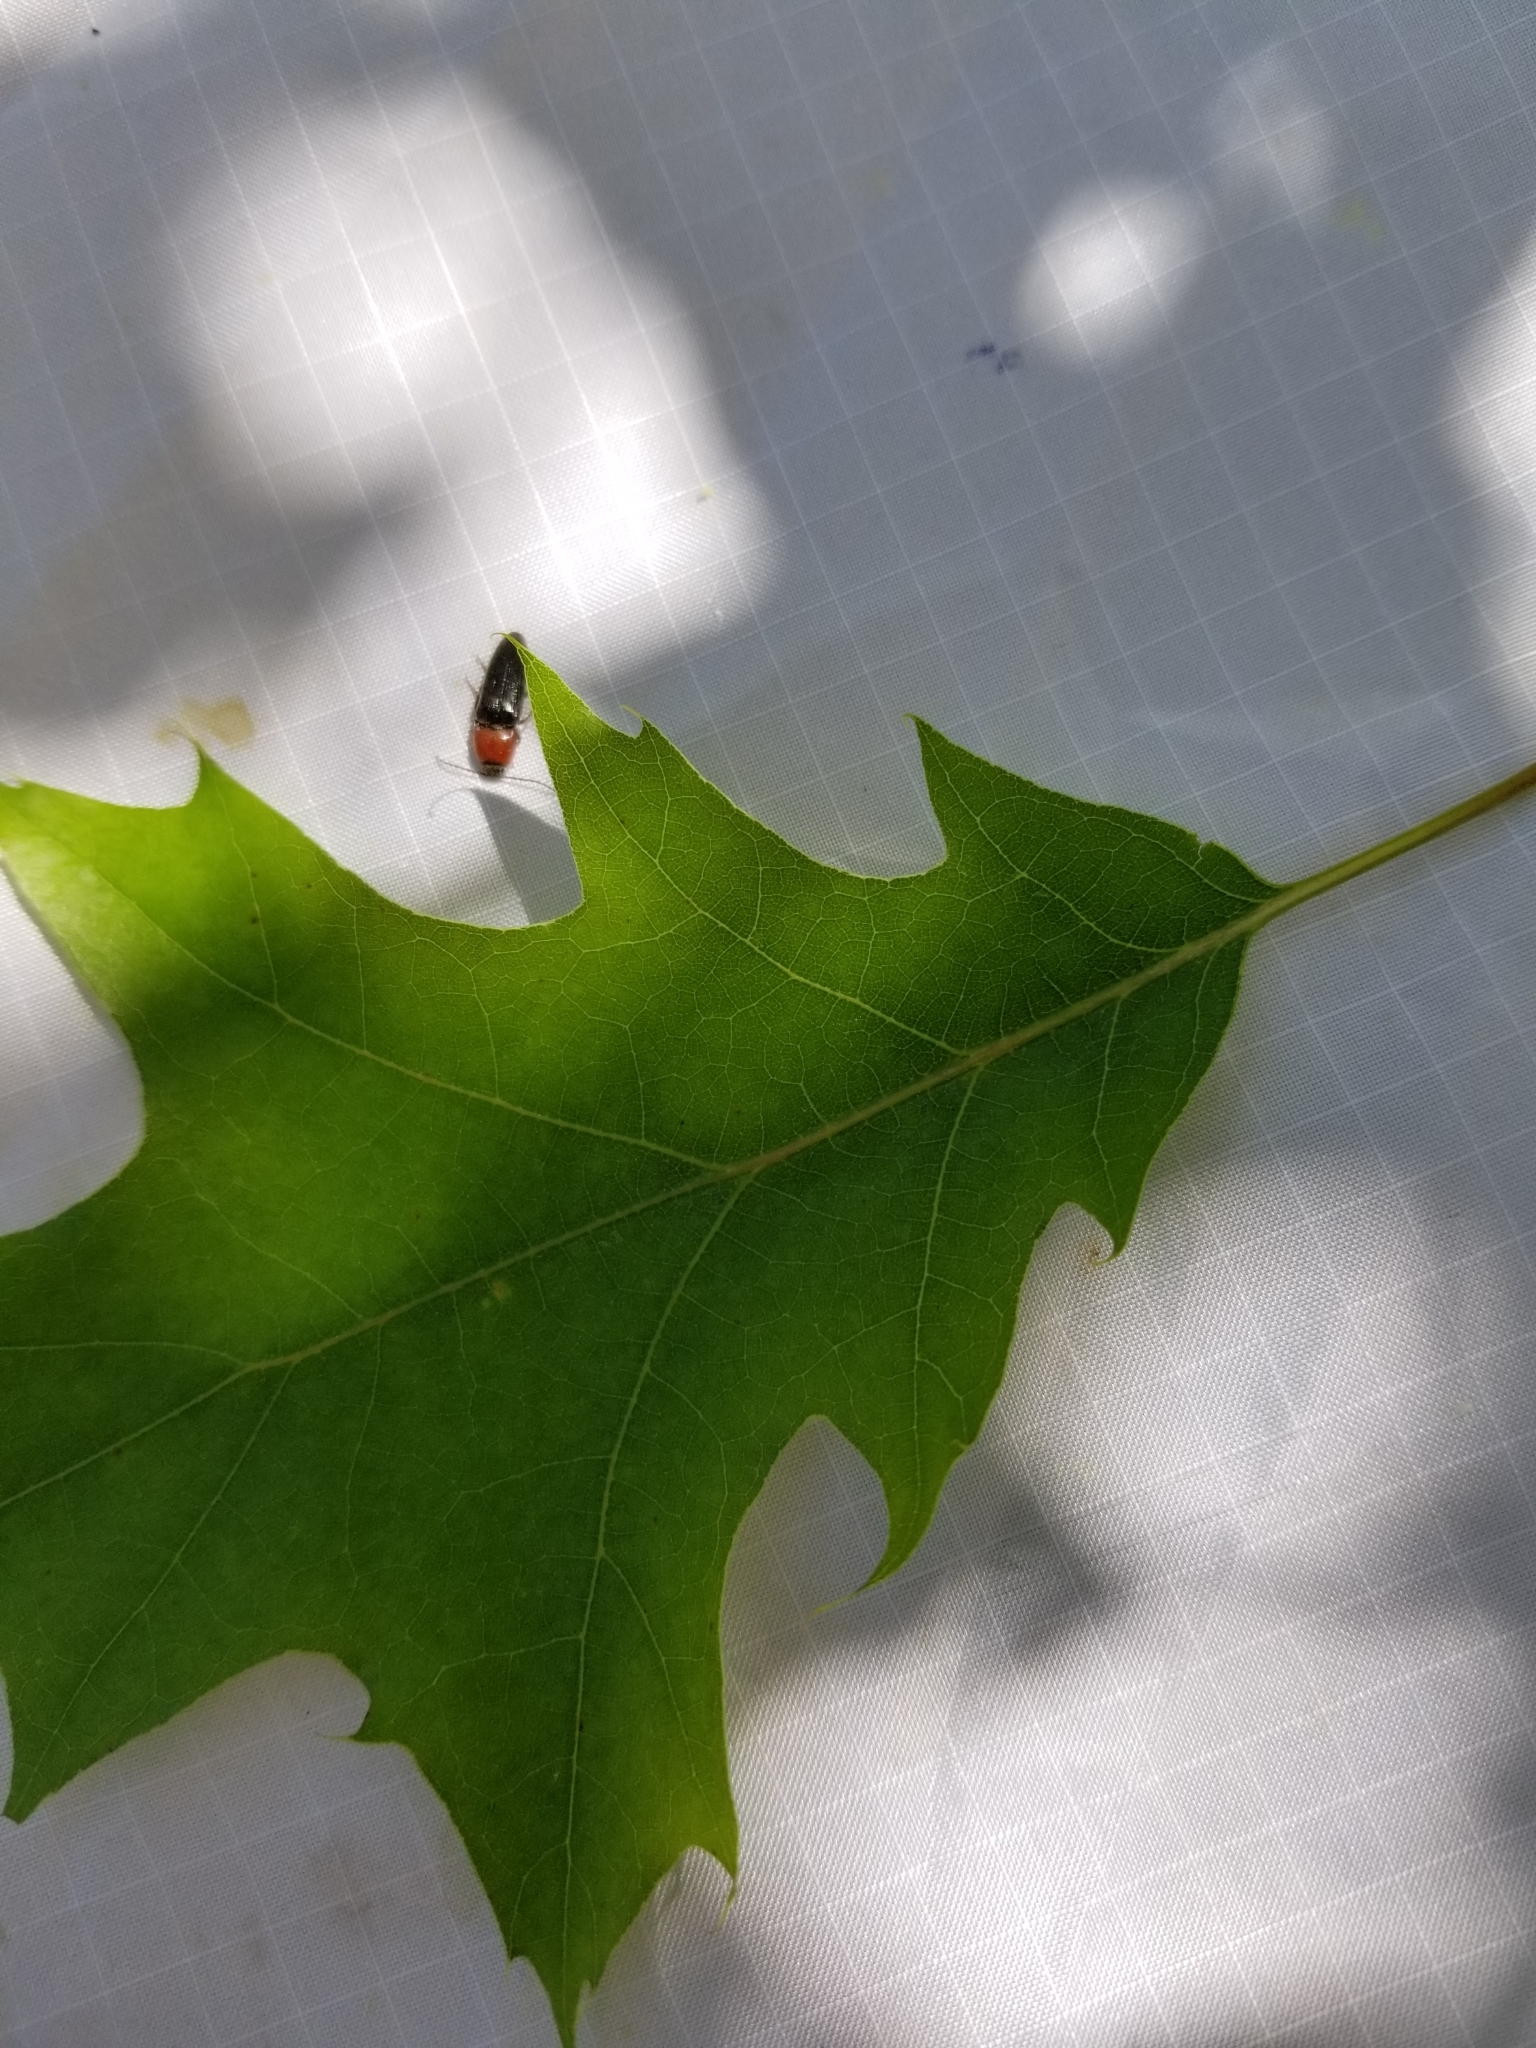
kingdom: Animalia
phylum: Arthropoda
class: Insecta
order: Coleoptera
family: Elateridae
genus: Melanotus
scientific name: Melanotus leonardi
